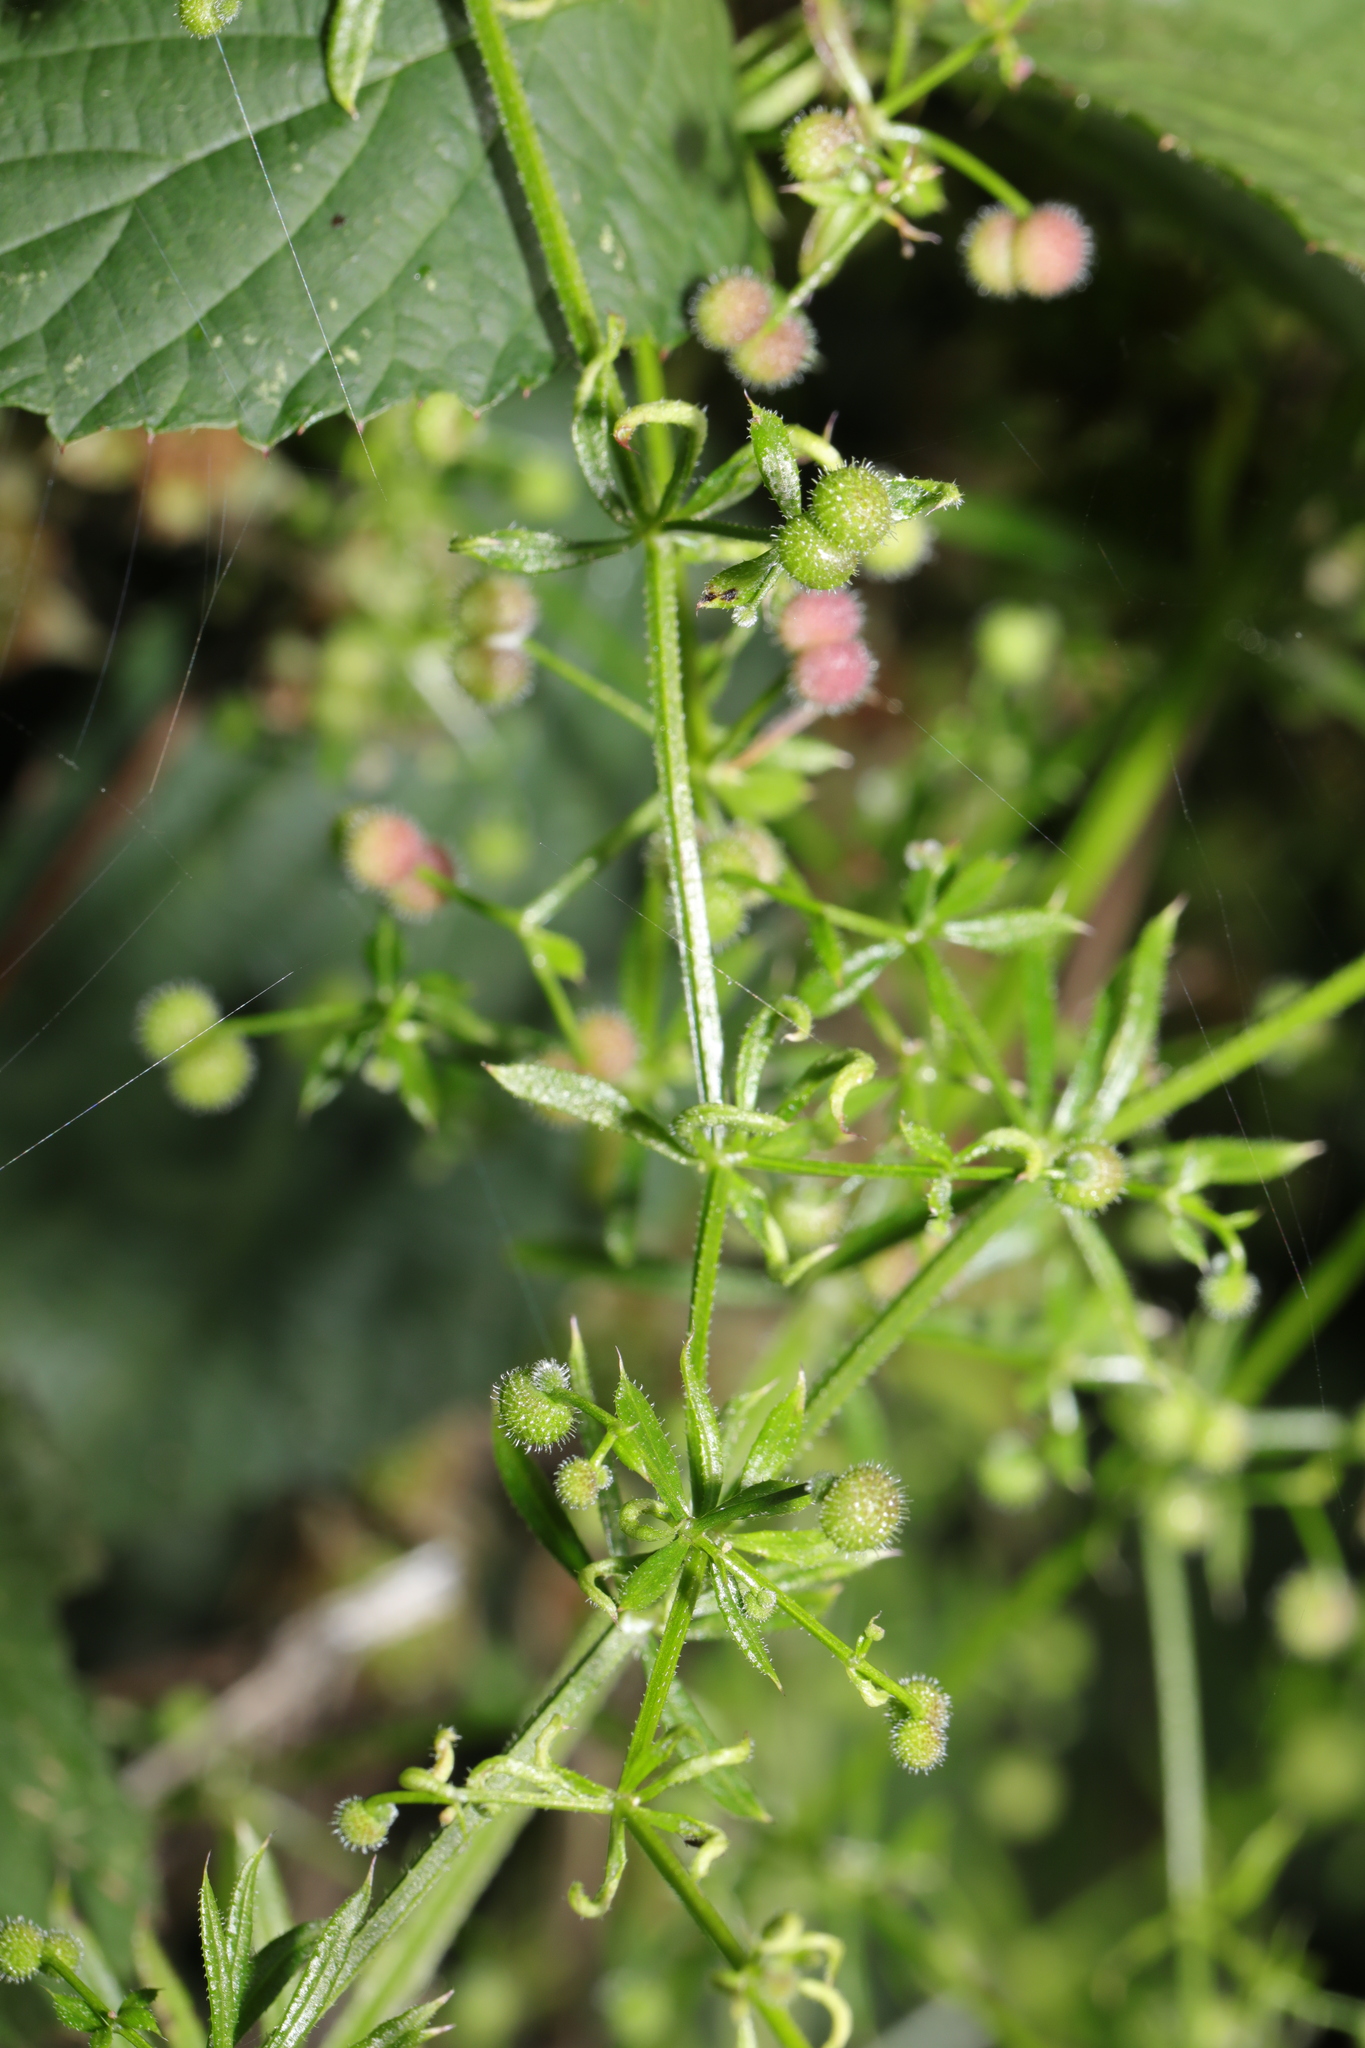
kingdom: Animalia
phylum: Arthropoda
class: Arachnida
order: Trombidiformes
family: Eriophyidae
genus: Cecidophyes
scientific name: Cecidophyes rouhollahi
